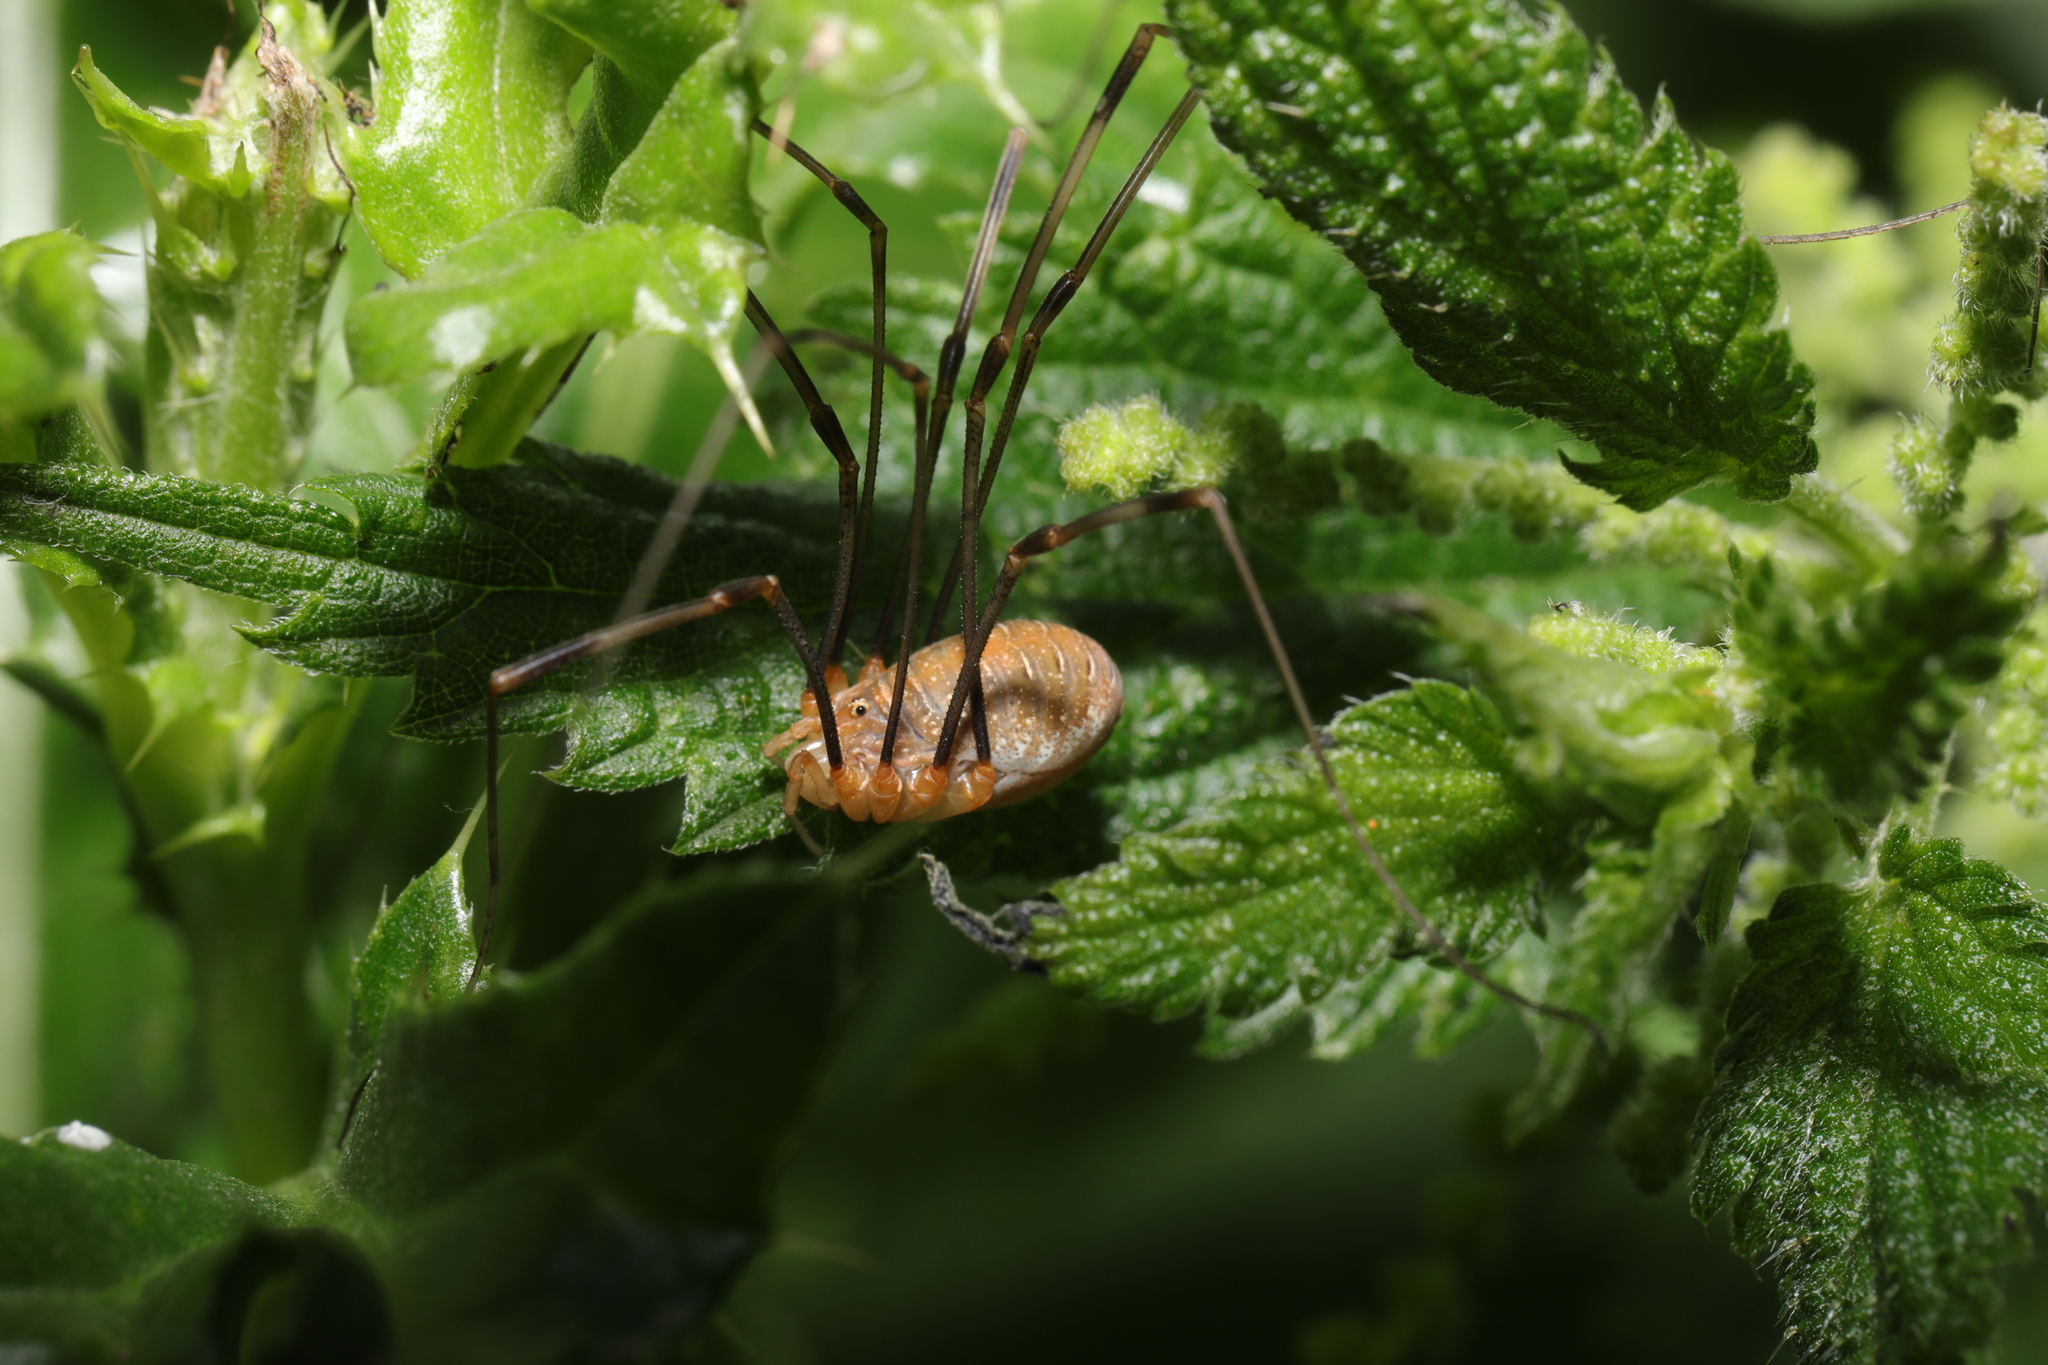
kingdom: Animalia
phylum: Arthropoda
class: Arachnida
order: Opiliones
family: Phalangiidae
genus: Opilio
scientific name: Opilio canestrinii
